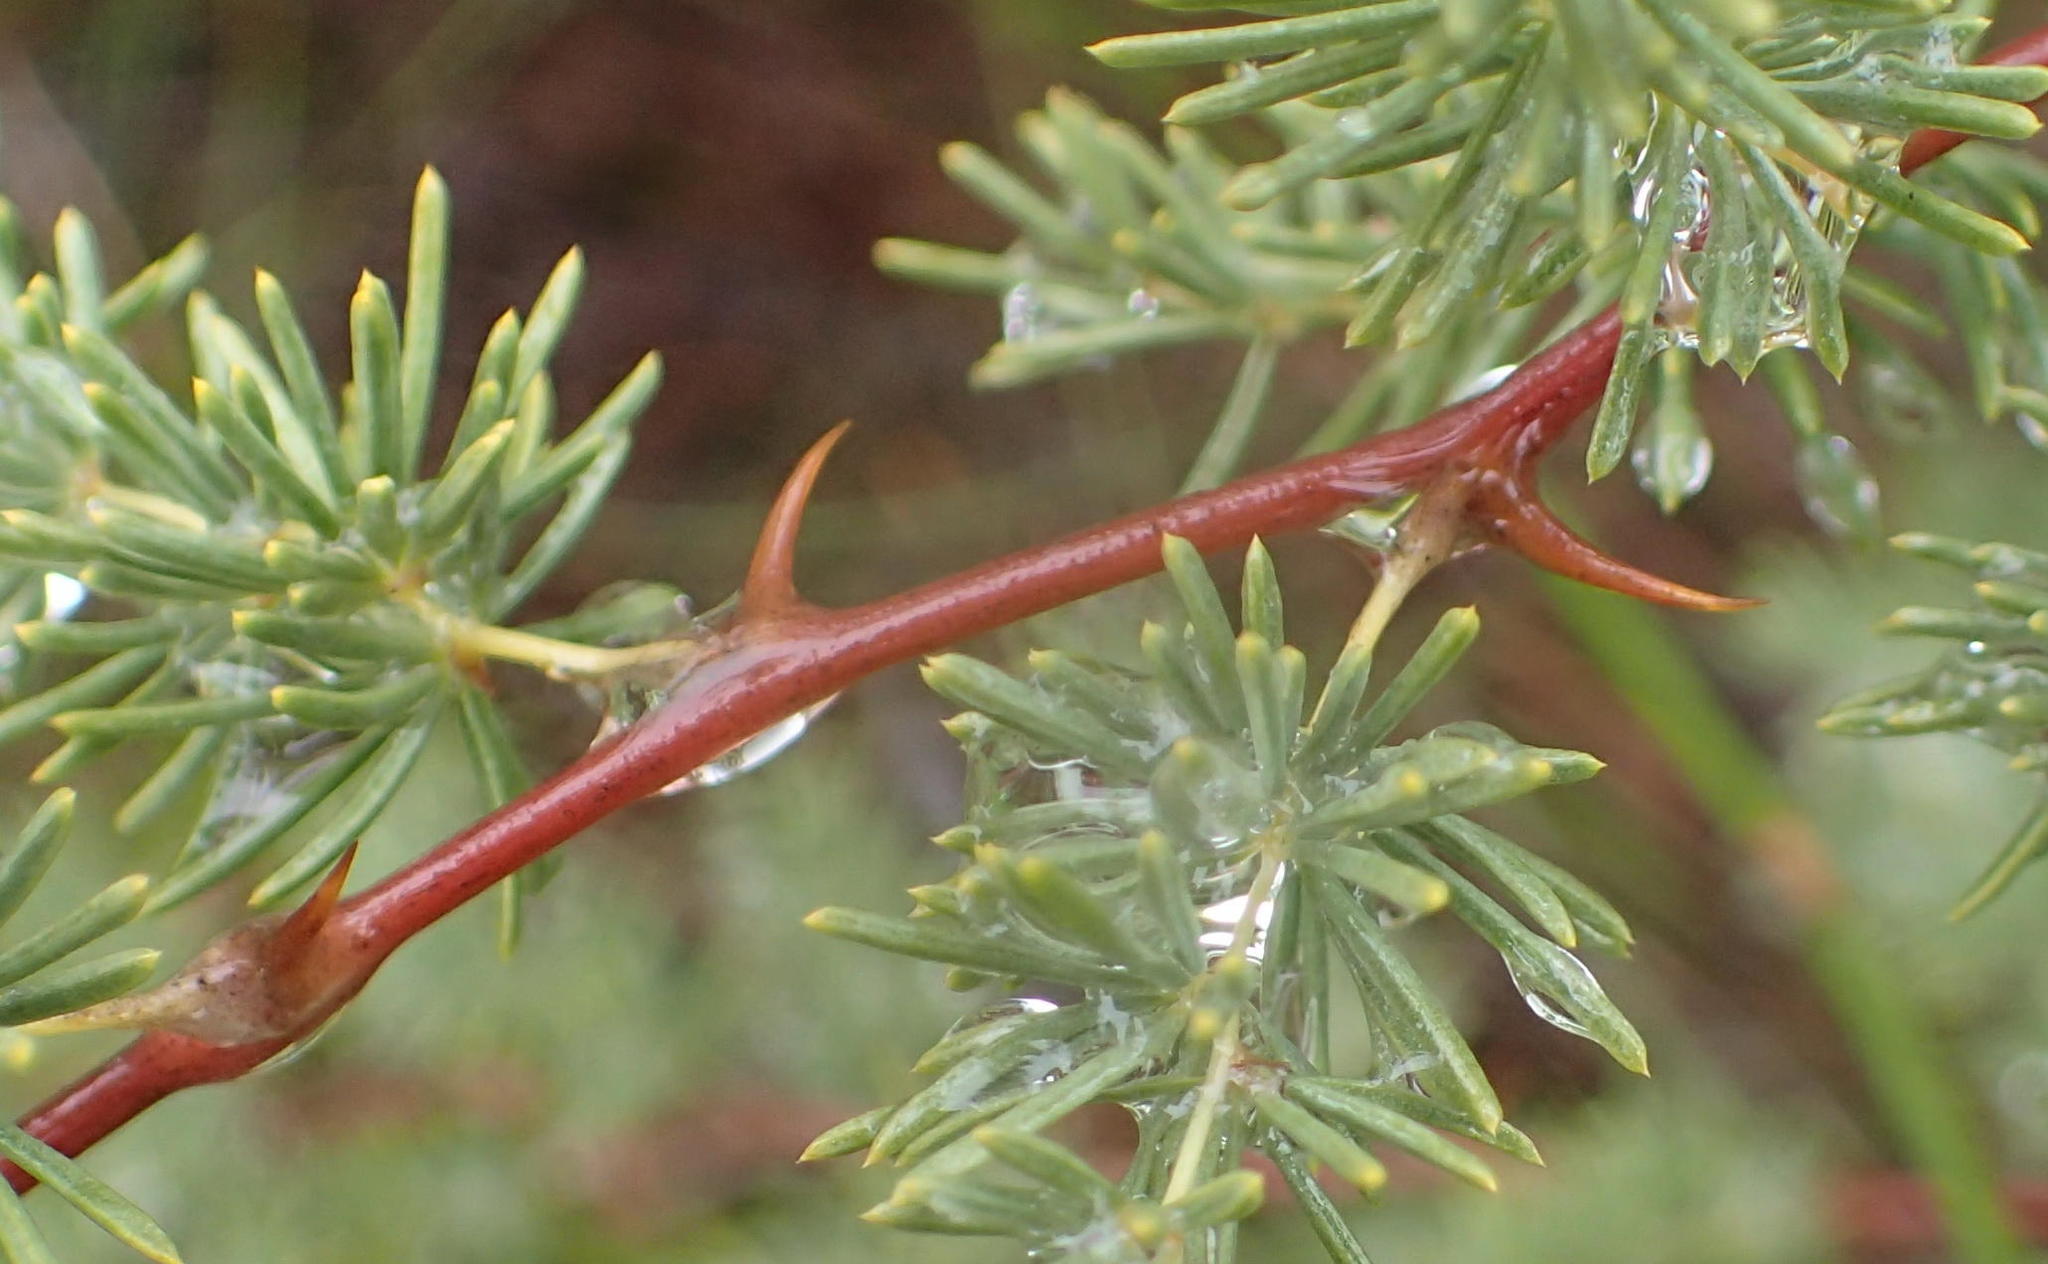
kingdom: Plantae
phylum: Tracheophyta
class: Liliopsida
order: Asparagales
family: Asparagaceae
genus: Asparagus
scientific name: Asparagus rubicundus
